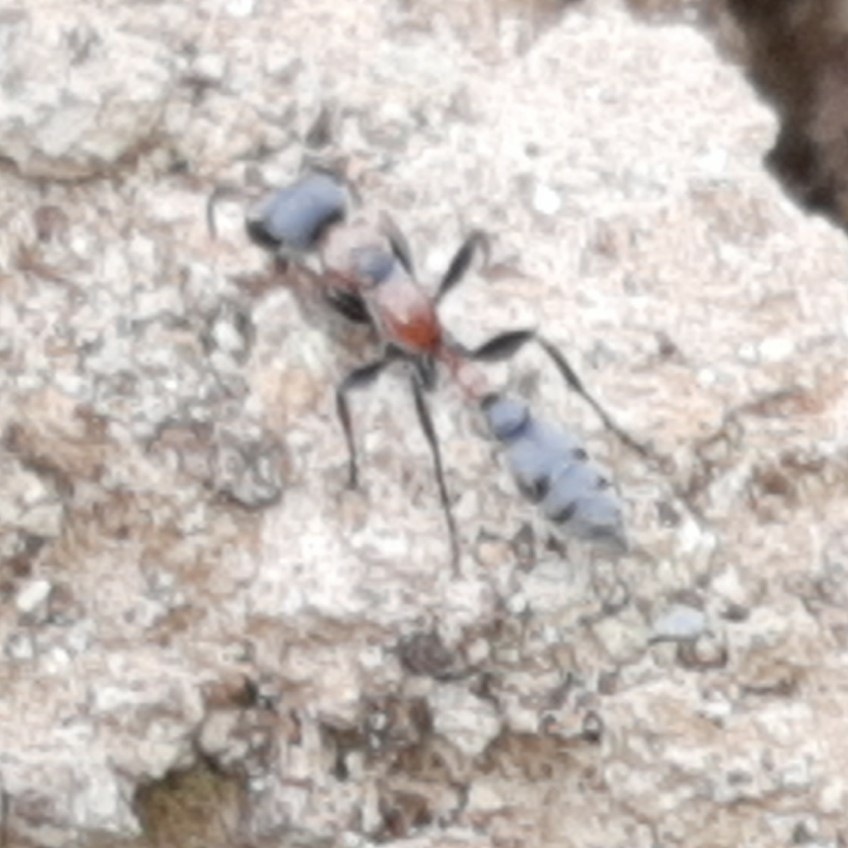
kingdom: Animalia
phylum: Arthropoda
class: Insecta
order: Hymenoptera
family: Formicidae
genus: Pseudomyrmex
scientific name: Pseudomyrmex gracilis
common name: Graceful twig ant
